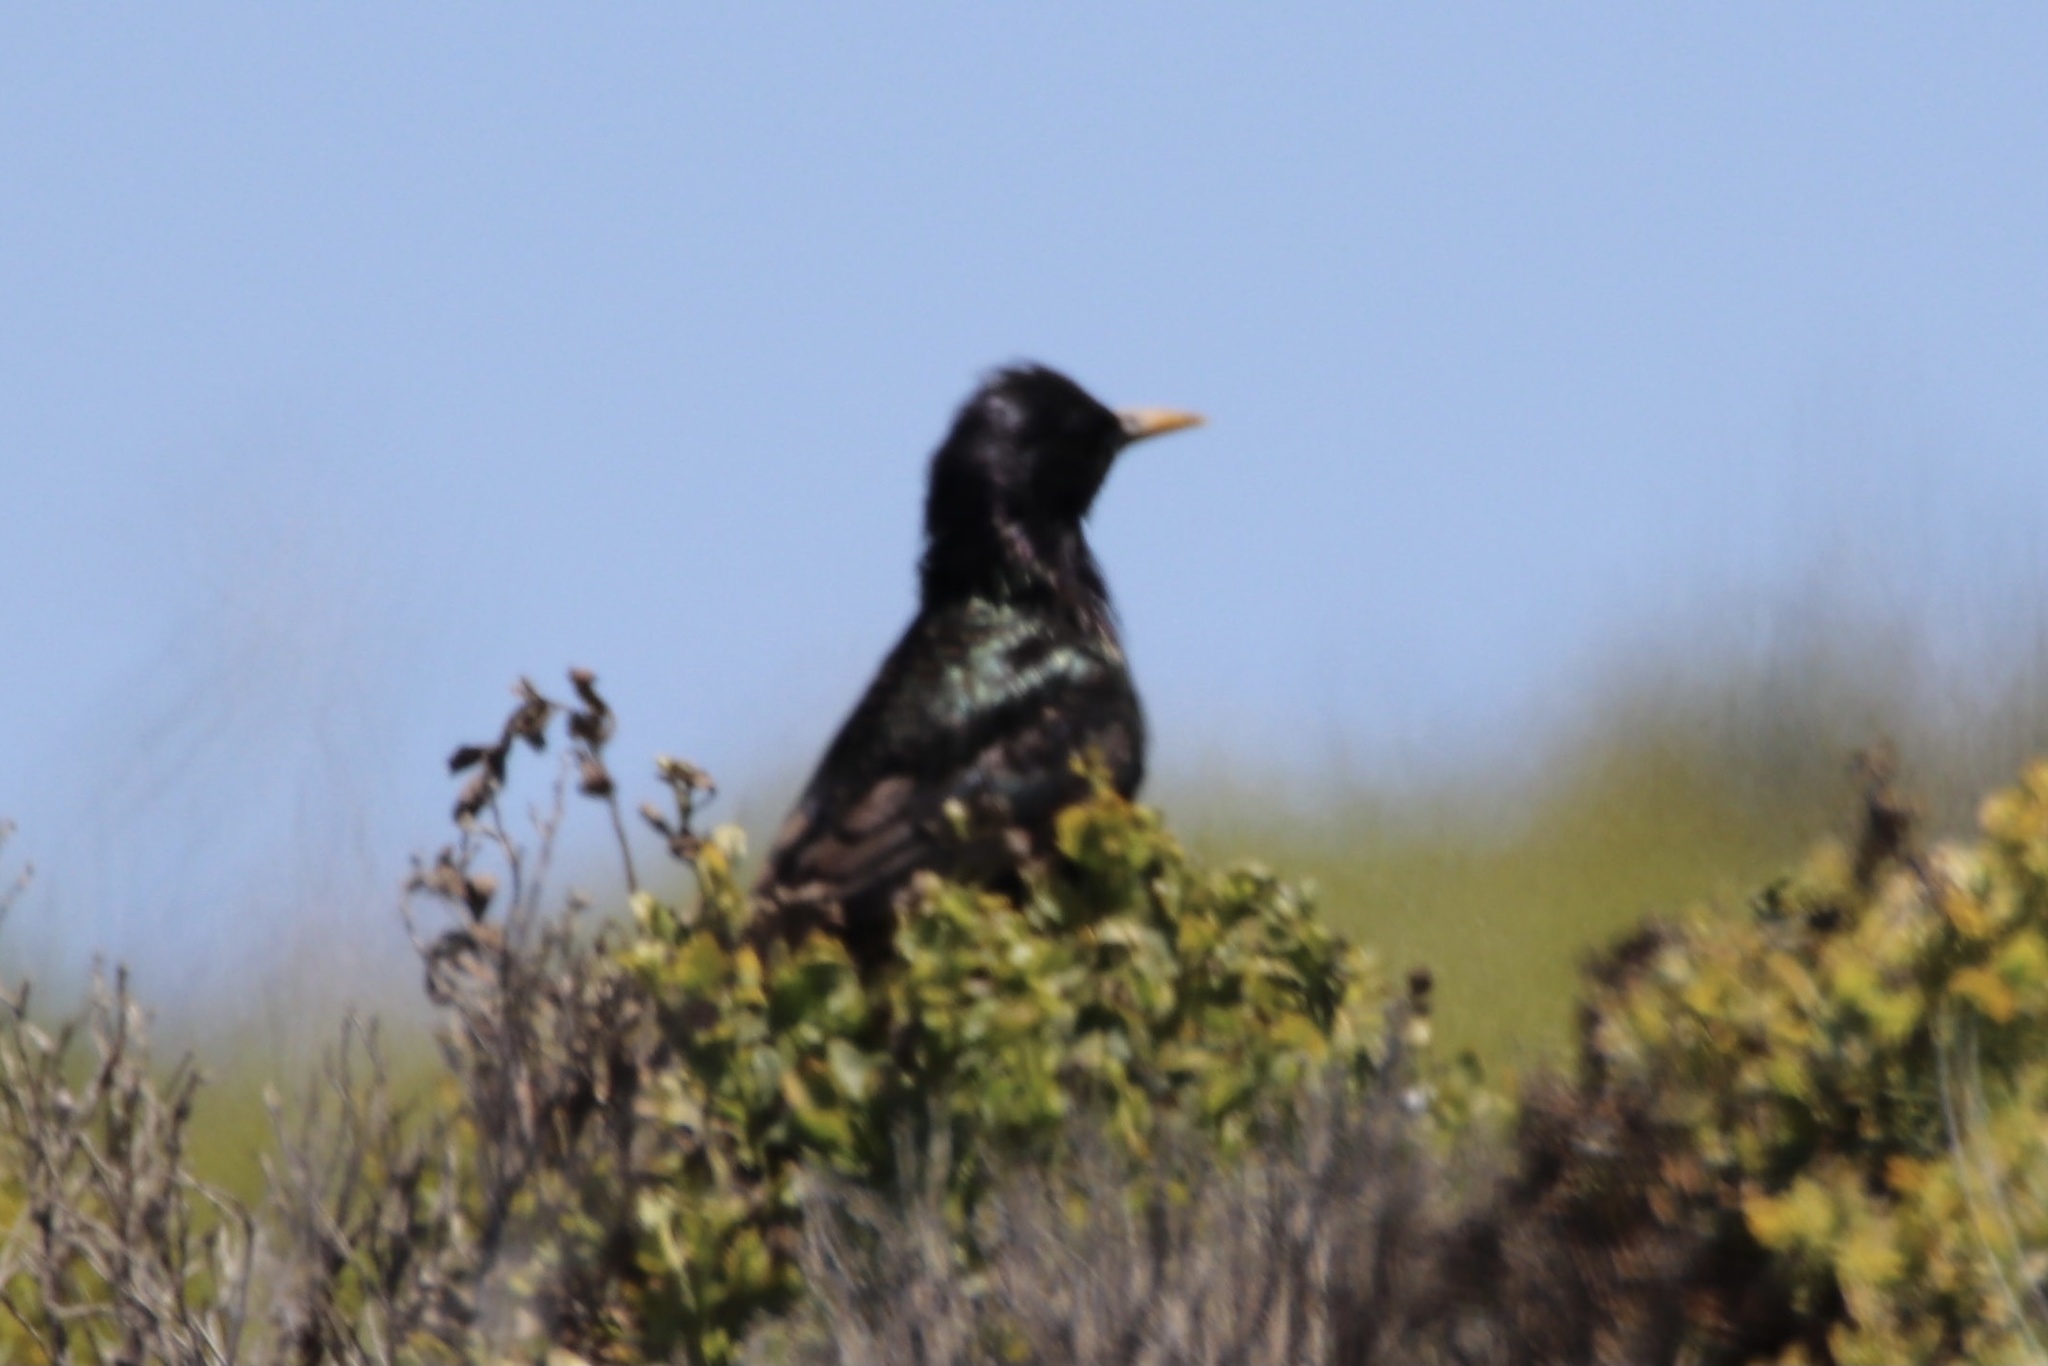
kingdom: Animalia
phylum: Chordata
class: Aves
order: Passeriformes
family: Sturnidae
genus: Sturnus
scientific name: Sturnus vulgaris
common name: Common starling
